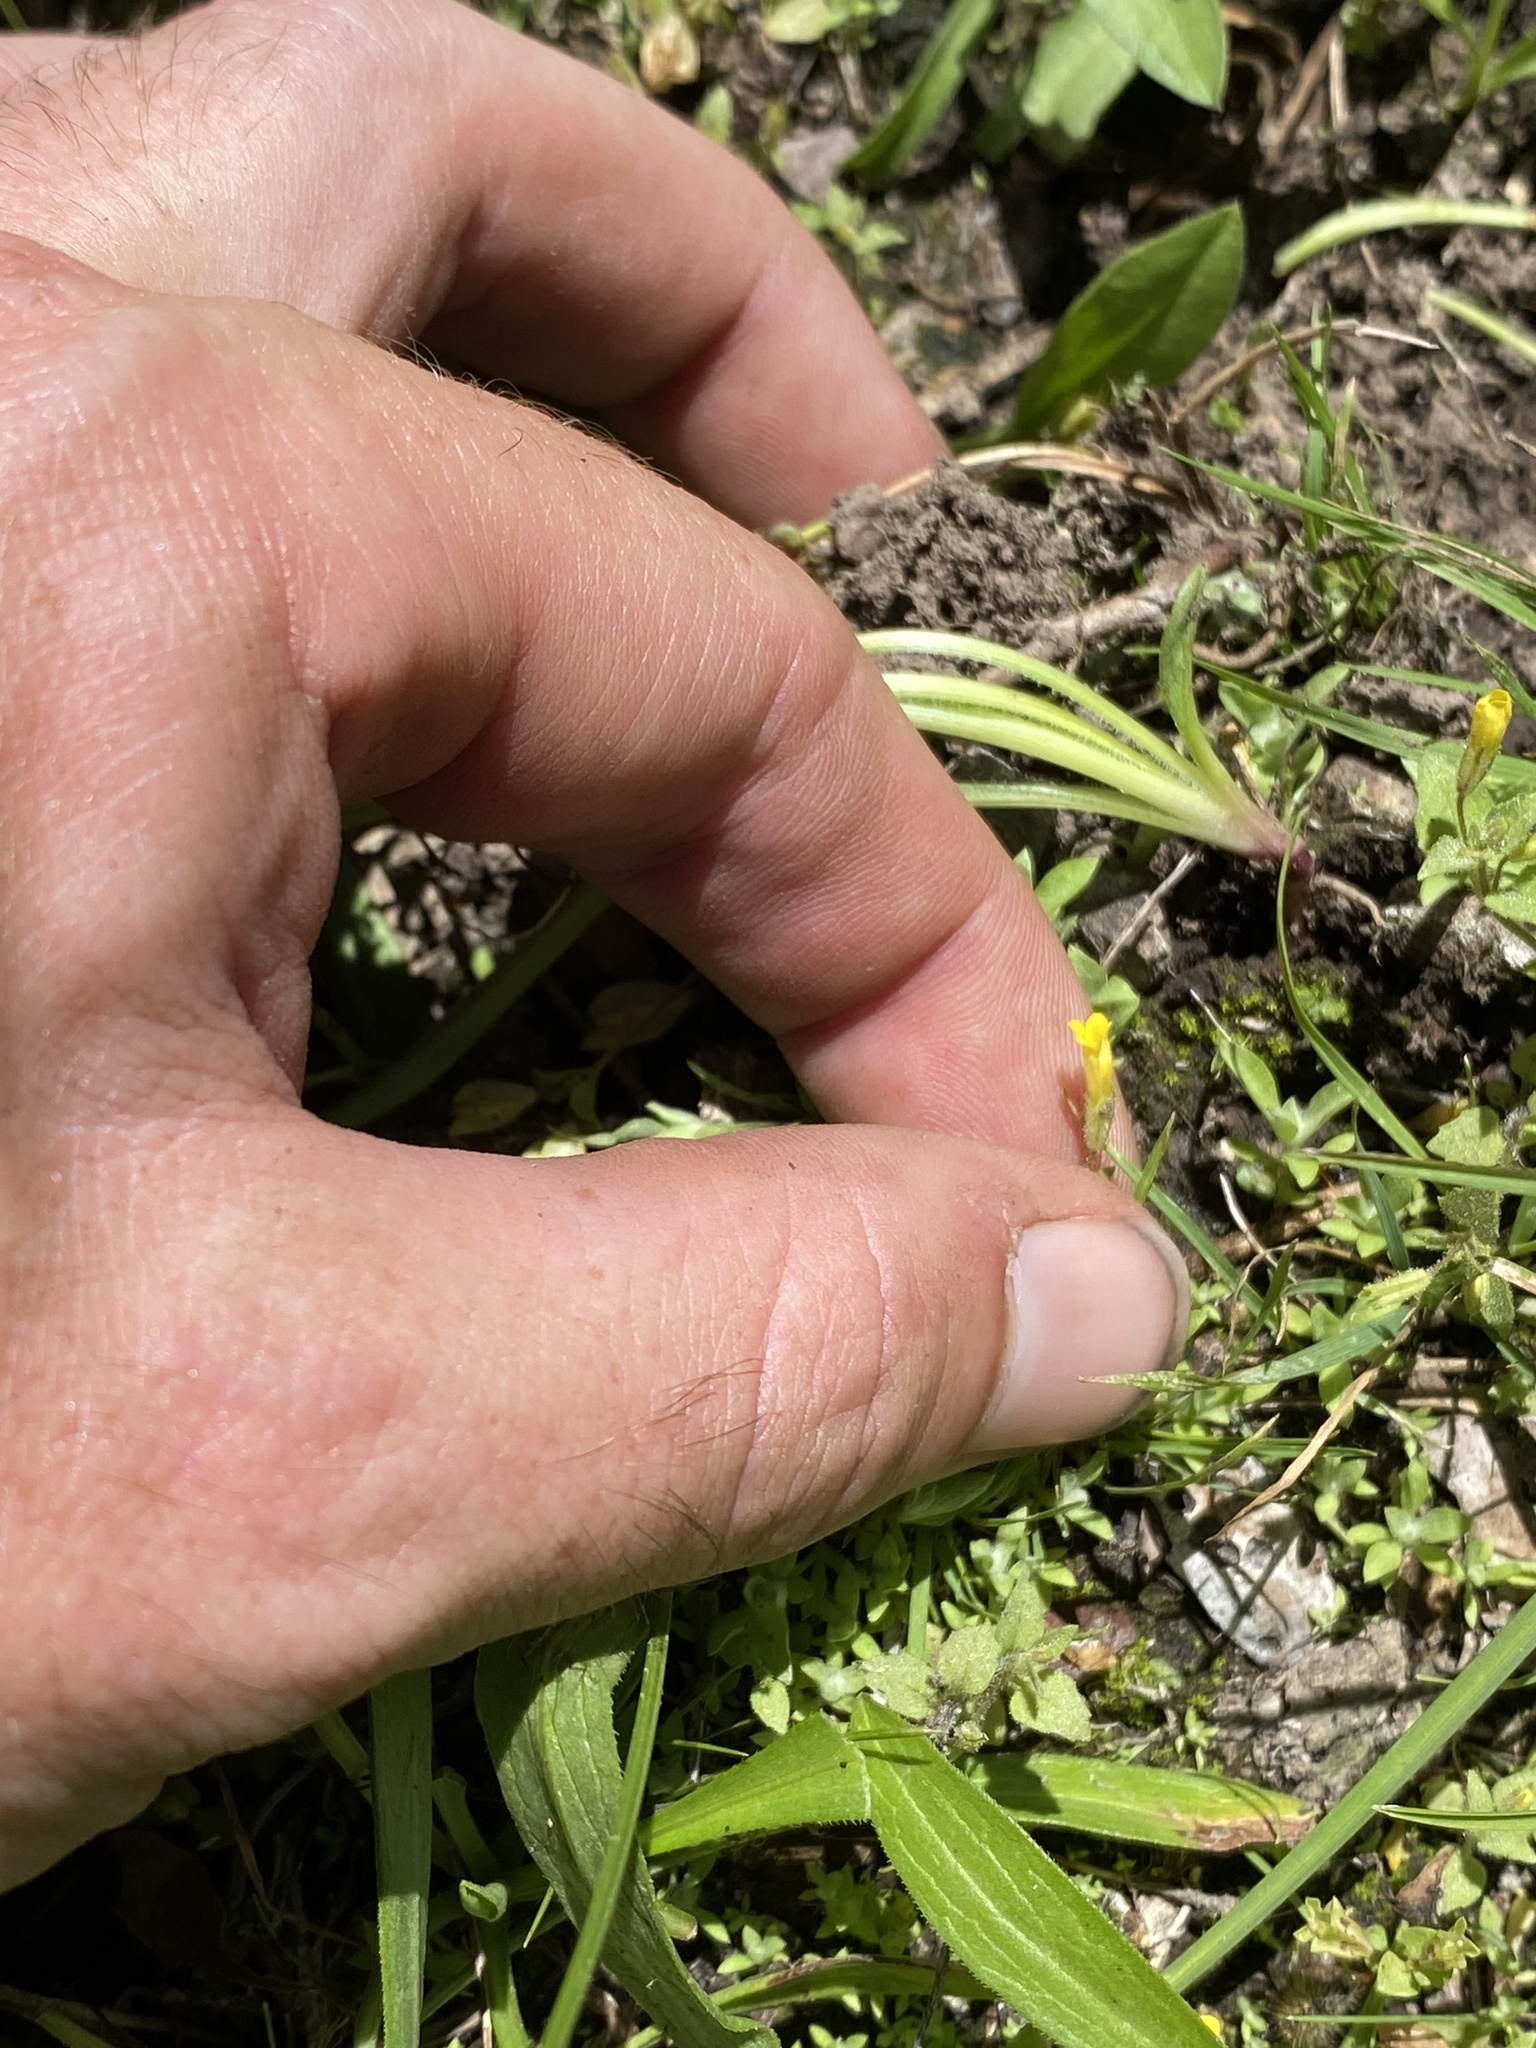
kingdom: Plantae
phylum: Tracheophyta
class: Magnoliopsida
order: Lamiales
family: Phrymaceae
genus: Erythranthe
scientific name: Erythranthe arvensis
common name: Field monkeyflower
